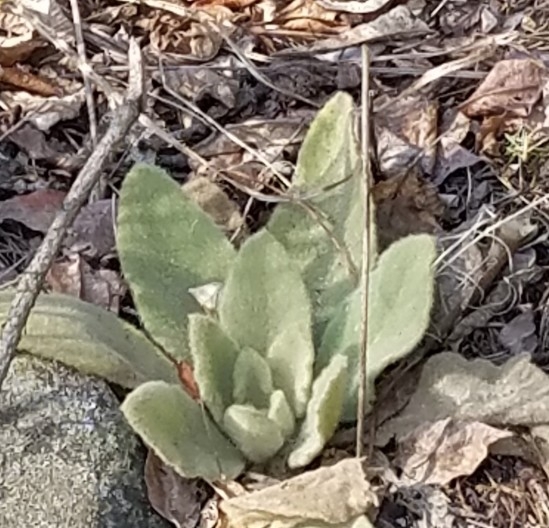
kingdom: Plantae
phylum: Tracheophyta
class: Magnoliopsida
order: Lamiales
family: Scrophulariaceae
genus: Verbascum
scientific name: Verbascum thapsus
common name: Common mullein
